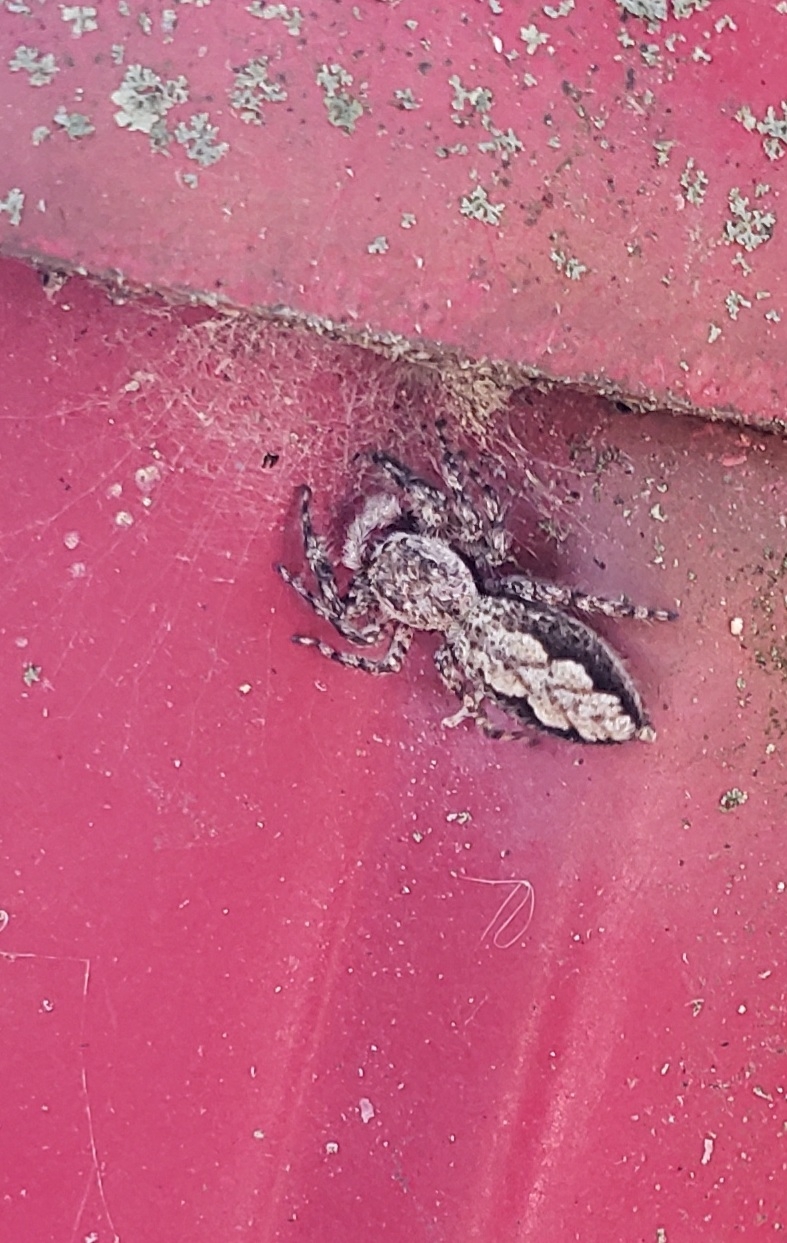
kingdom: Animalia
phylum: Arthropoda
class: Arachnida
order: Araneae
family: Salticidae
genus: Platycryptus
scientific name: Platycryptus undatus
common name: Tan jumping spider
